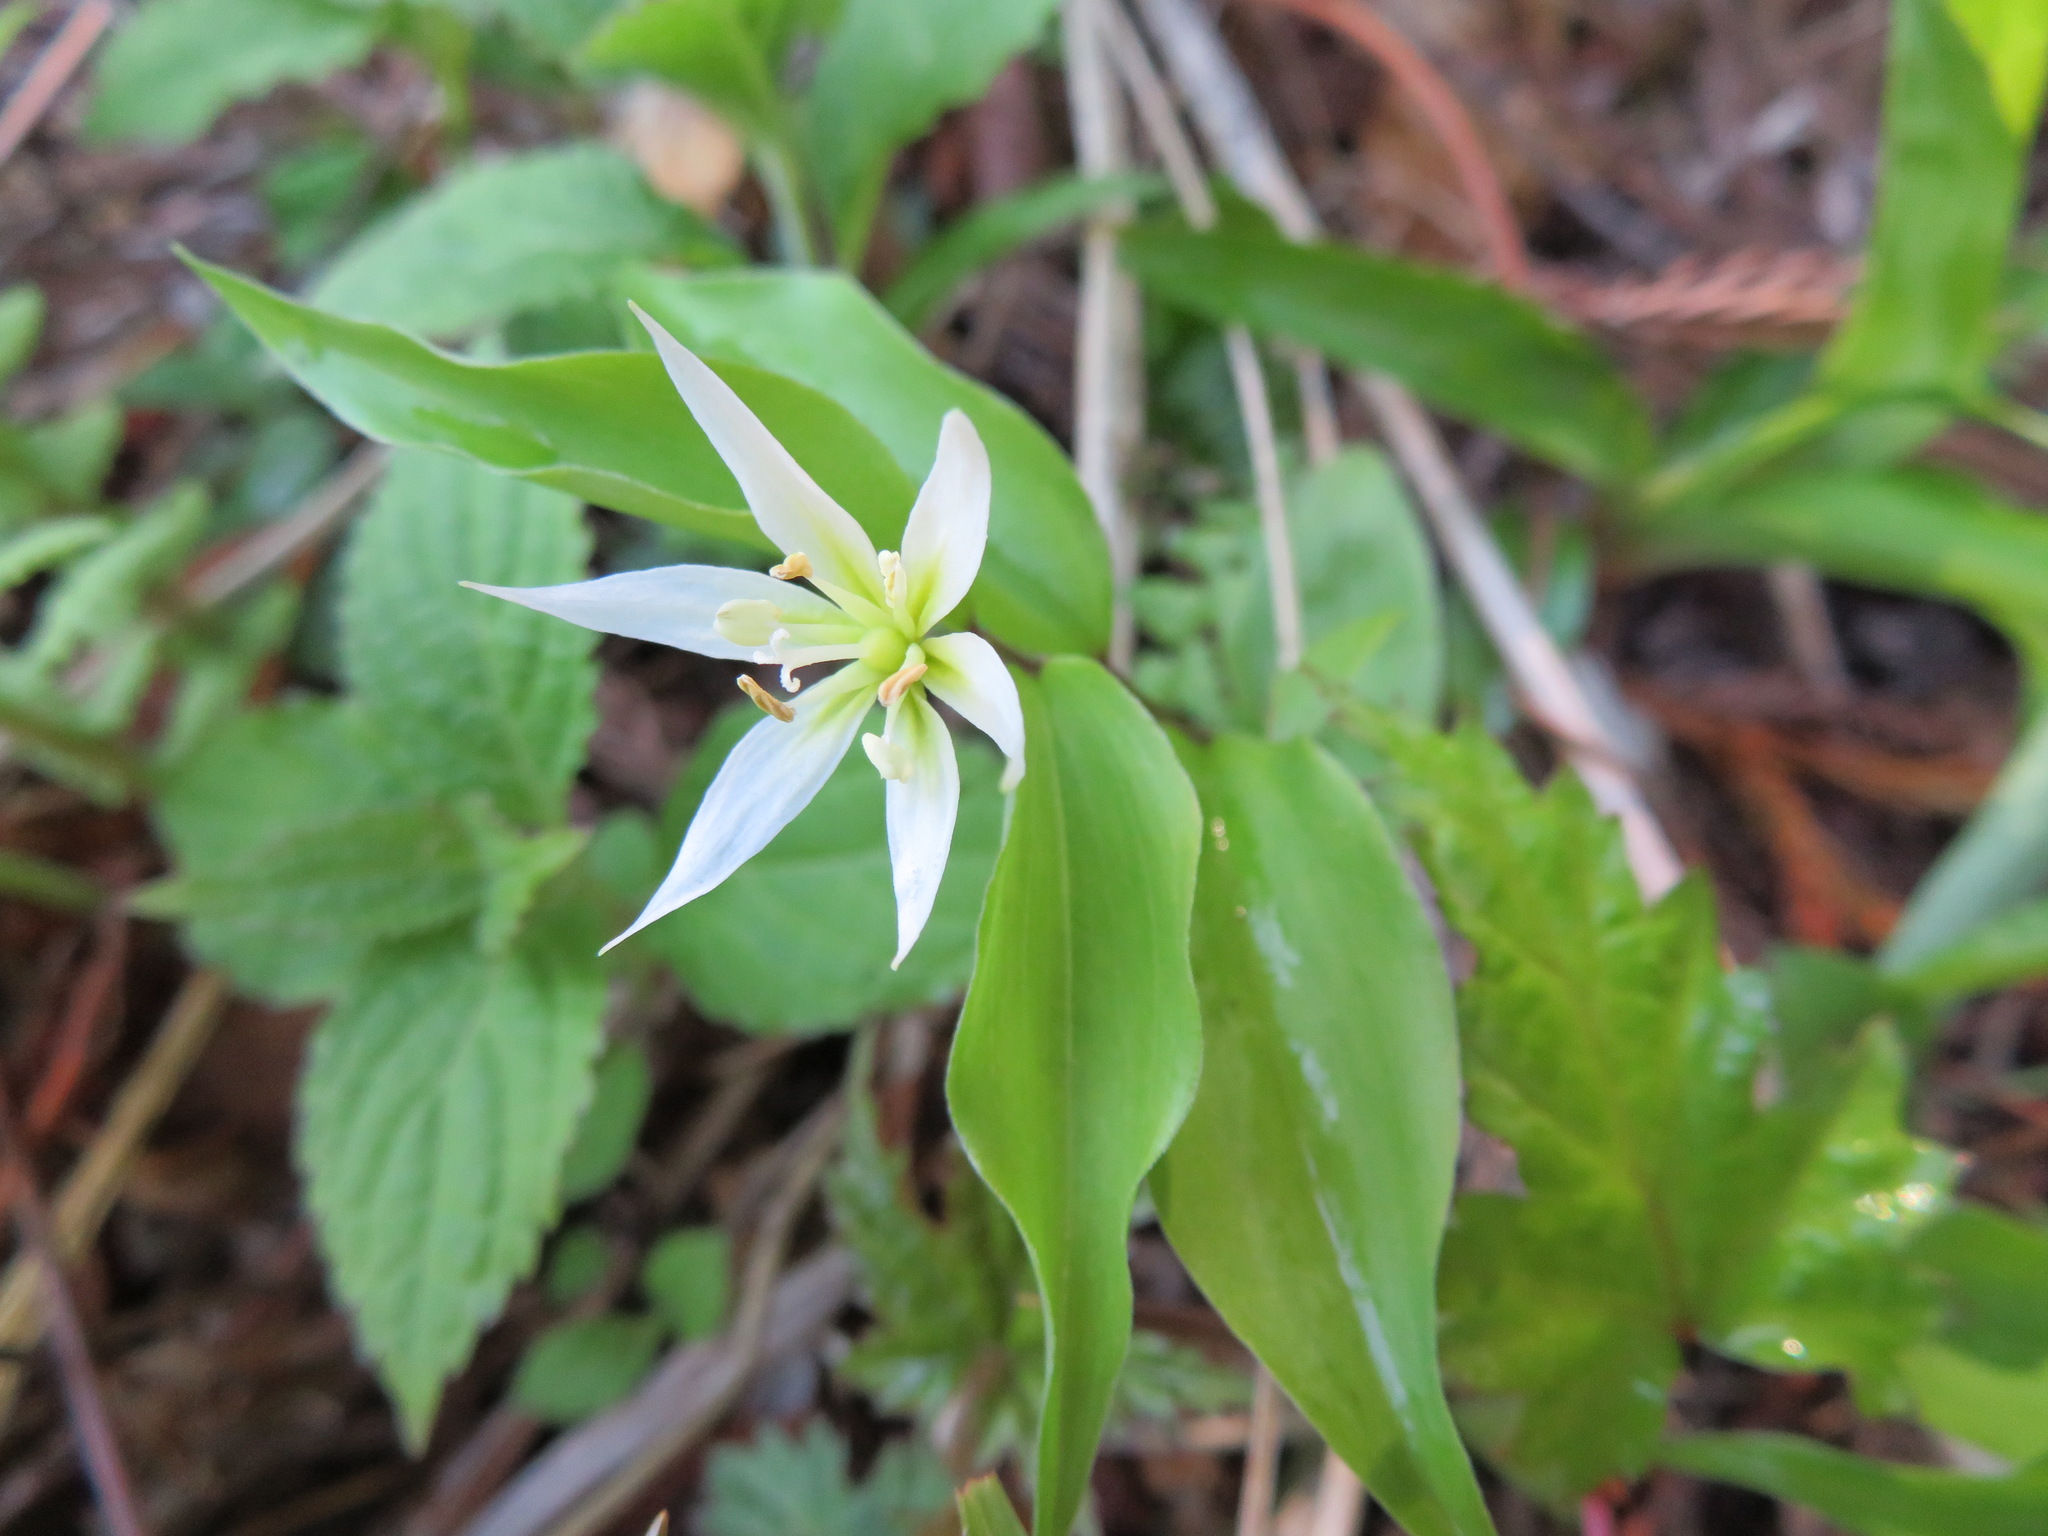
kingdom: Plantae
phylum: Tracheophyta
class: Liliopsida
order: Liliales
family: Colchicaceae
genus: Disporum
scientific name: Disporum smilacinum
